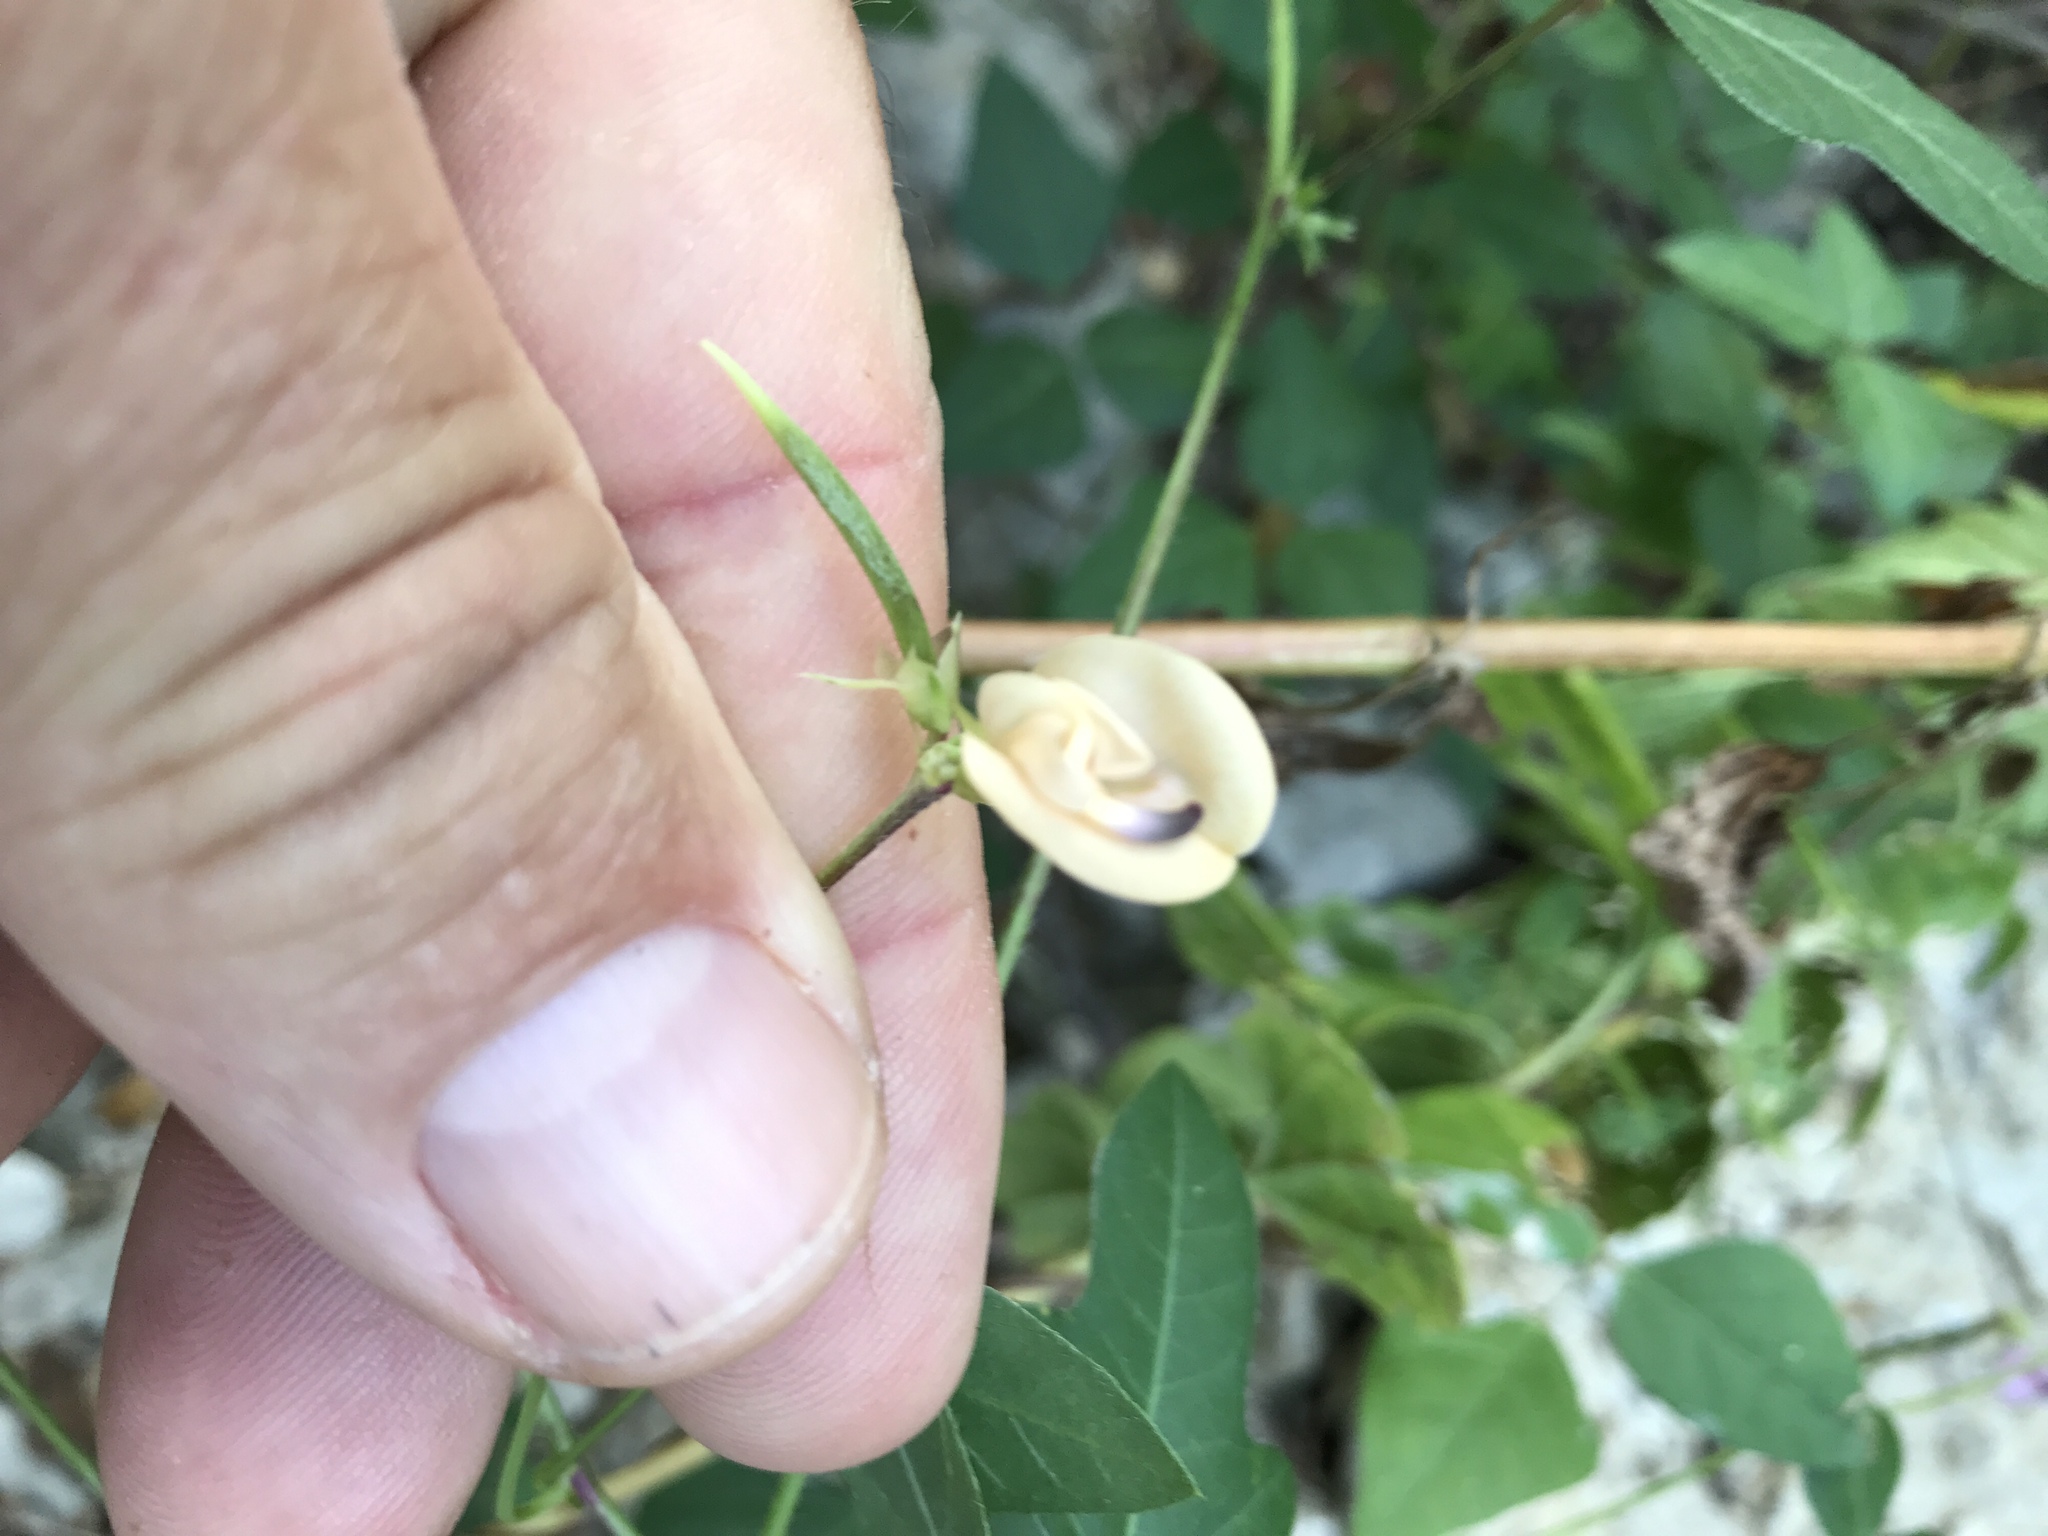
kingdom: Plantae
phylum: Tracheophyta
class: Magnoliopsida
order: Fabales
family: Fabaceae
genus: Strophostyles
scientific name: Strophostyles helvola
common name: Trailing wild bean
